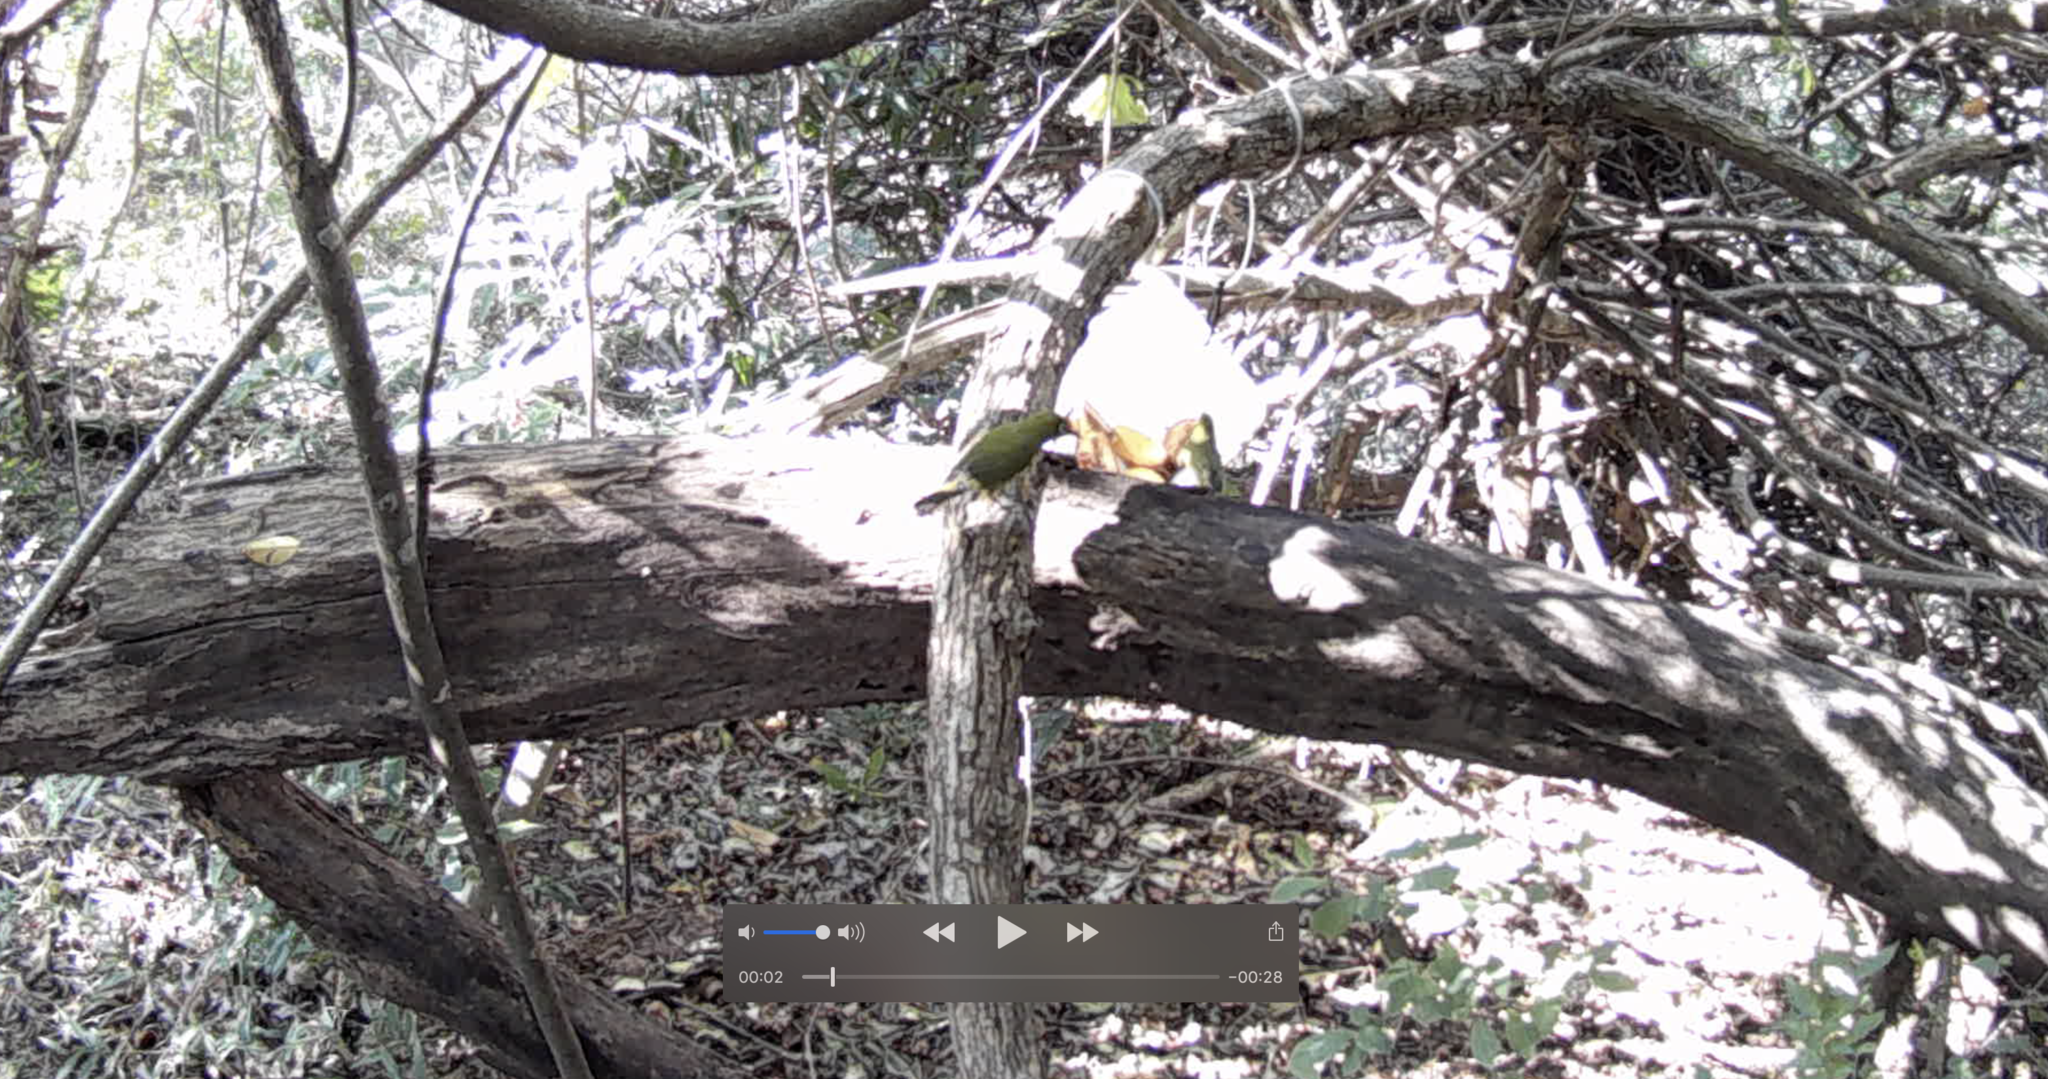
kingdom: Animalia
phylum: Chordata
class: Aves
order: Passeriformes
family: Zosteropidae
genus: Zosterops
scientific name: Zosterops virens
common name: Cape white-eye
